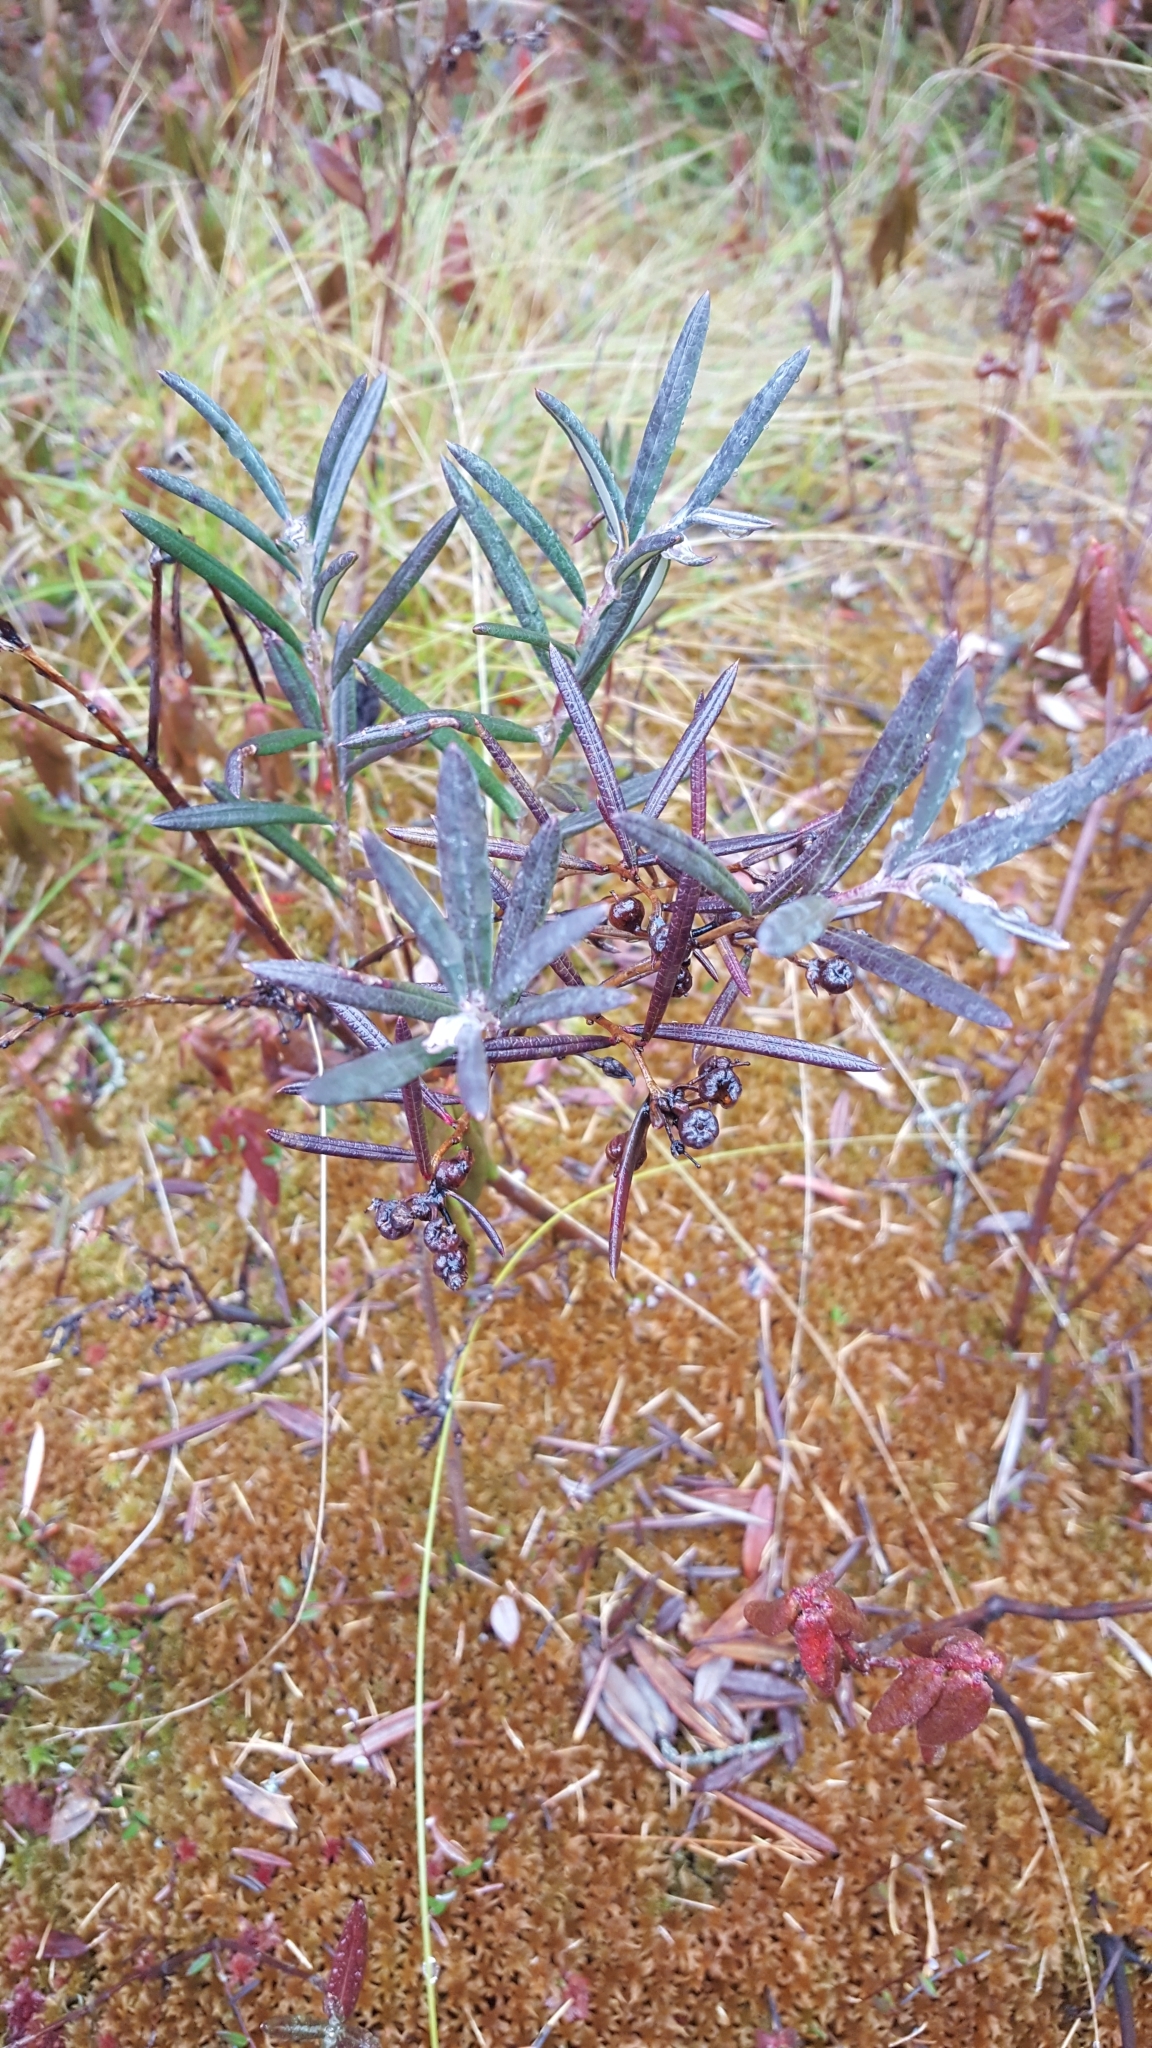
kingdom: Plantae
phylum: Tracheophyta
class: Magnoliopsida
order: Ericales
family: Ericaceae
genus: Andromeda
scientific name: Andromeda polifolia
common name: Bog-rosemary
